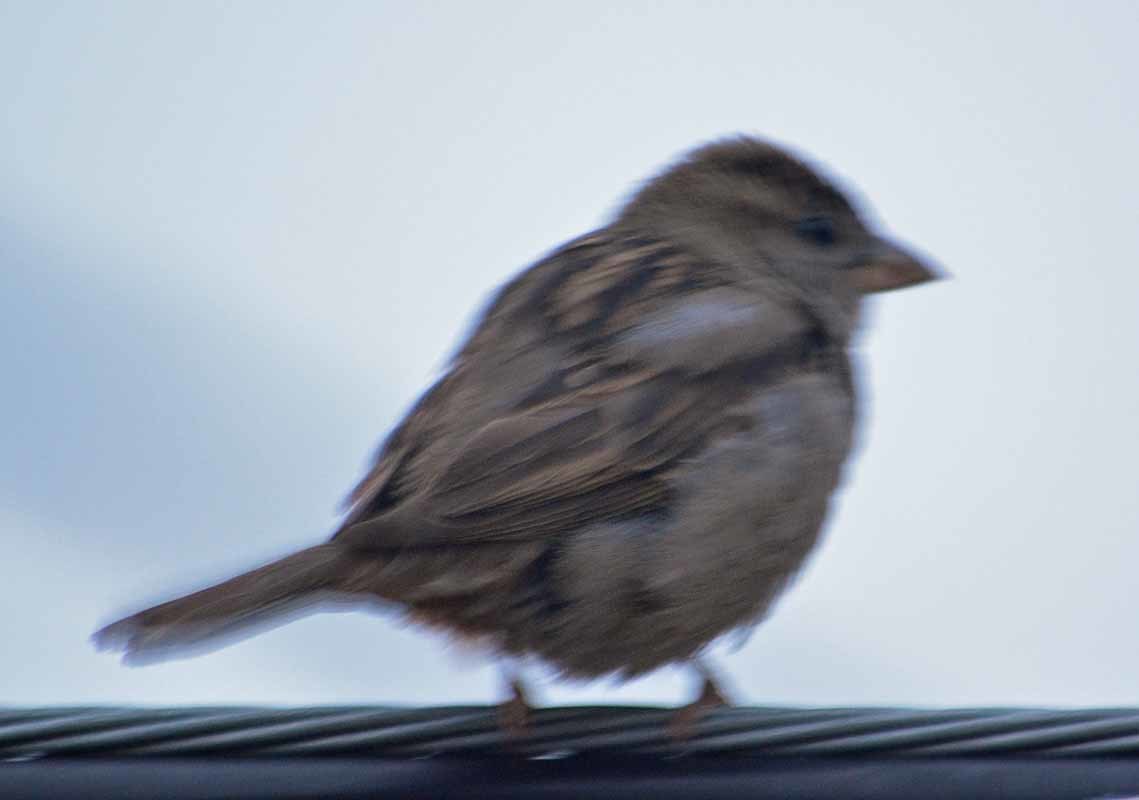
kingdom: Animalia
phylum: Chordata
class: Aves
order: Passeriformes
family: Passeridae
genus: Passer
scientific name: Passer domesticus
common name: House sparrow
